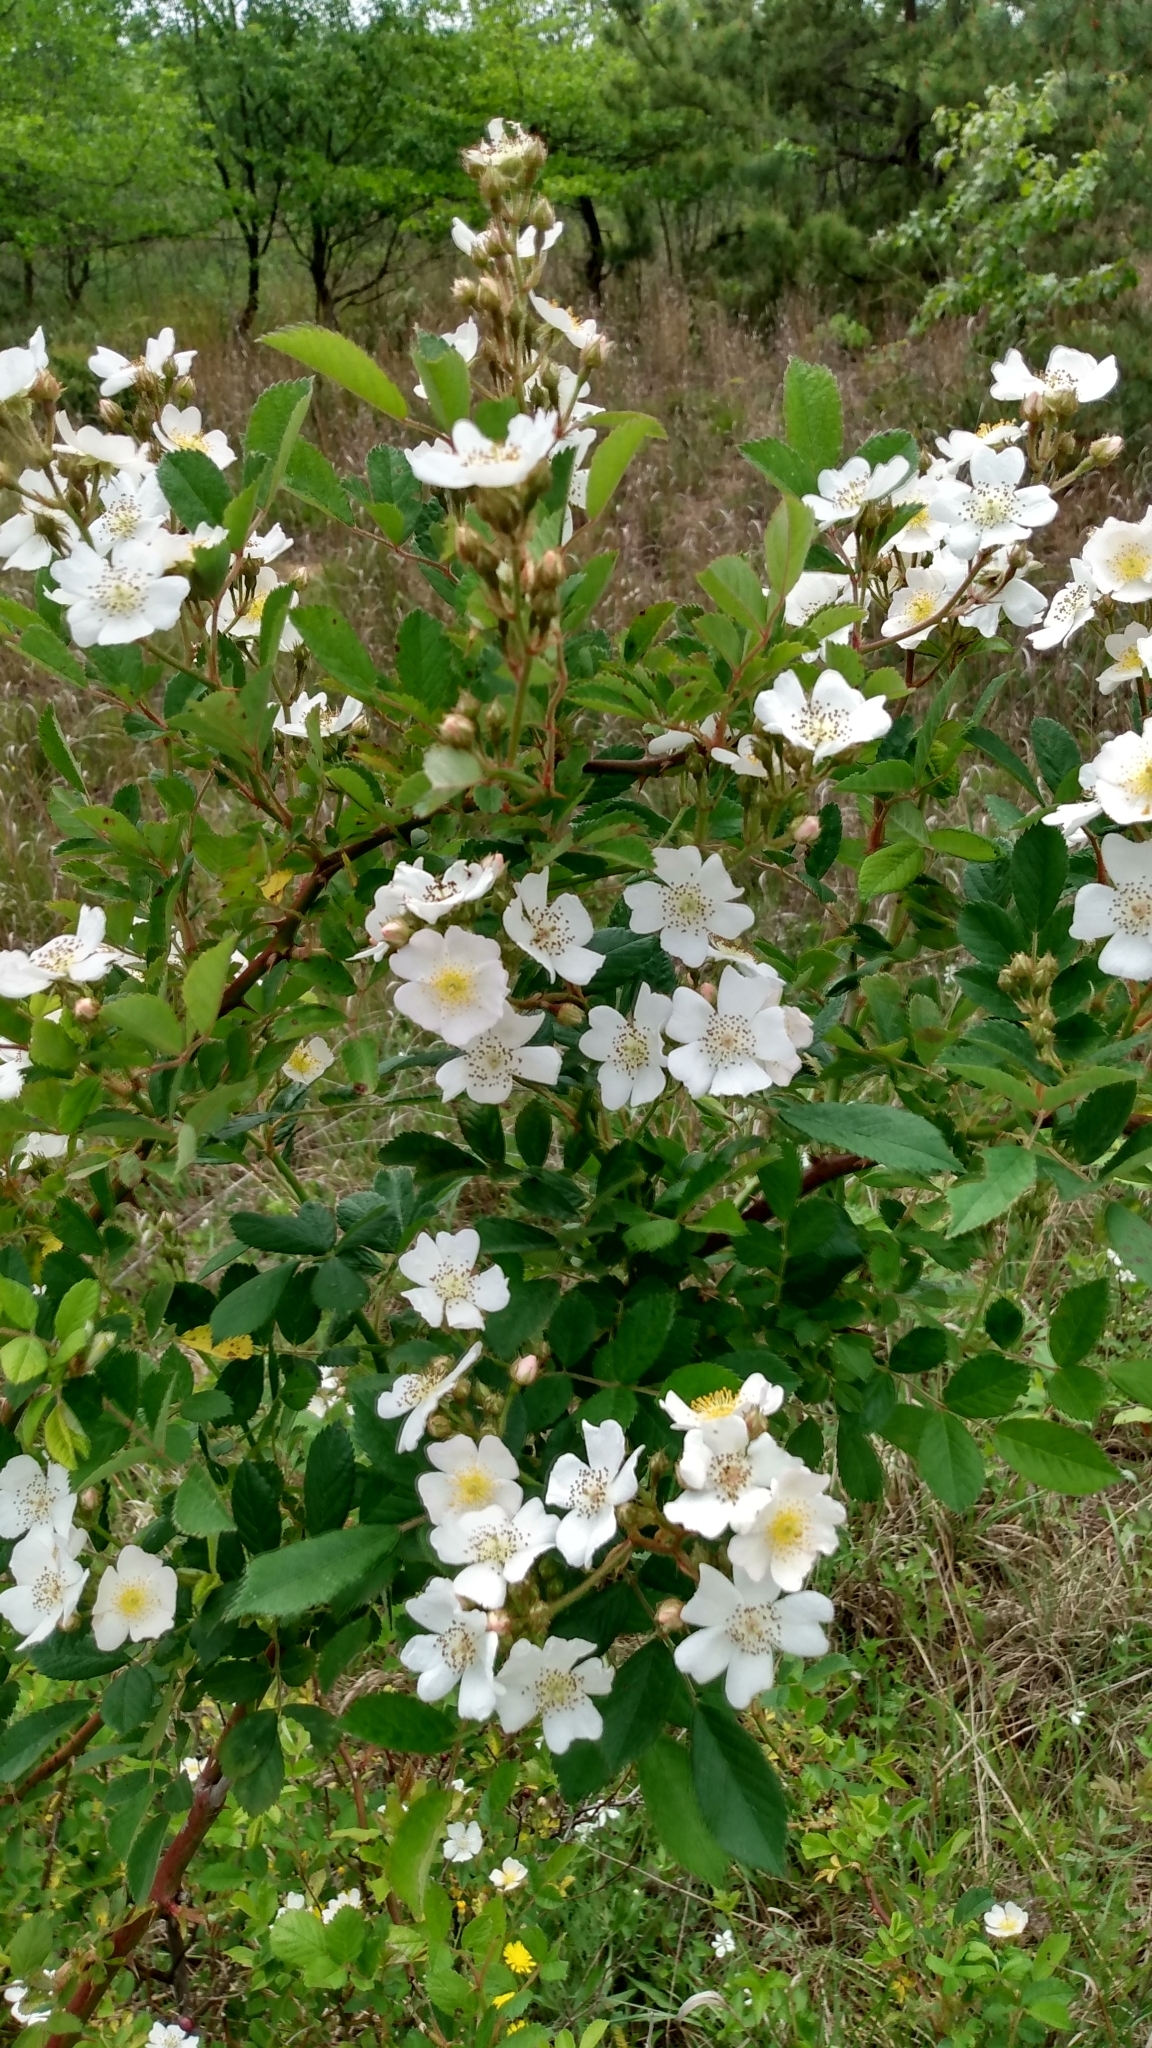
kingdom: Plantae
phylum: Tracheophyta
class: Magnoliopsida
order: Rosales
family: Rosaceae
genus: Rosa
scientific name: Rosa multiflora
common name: Multiflora rose
